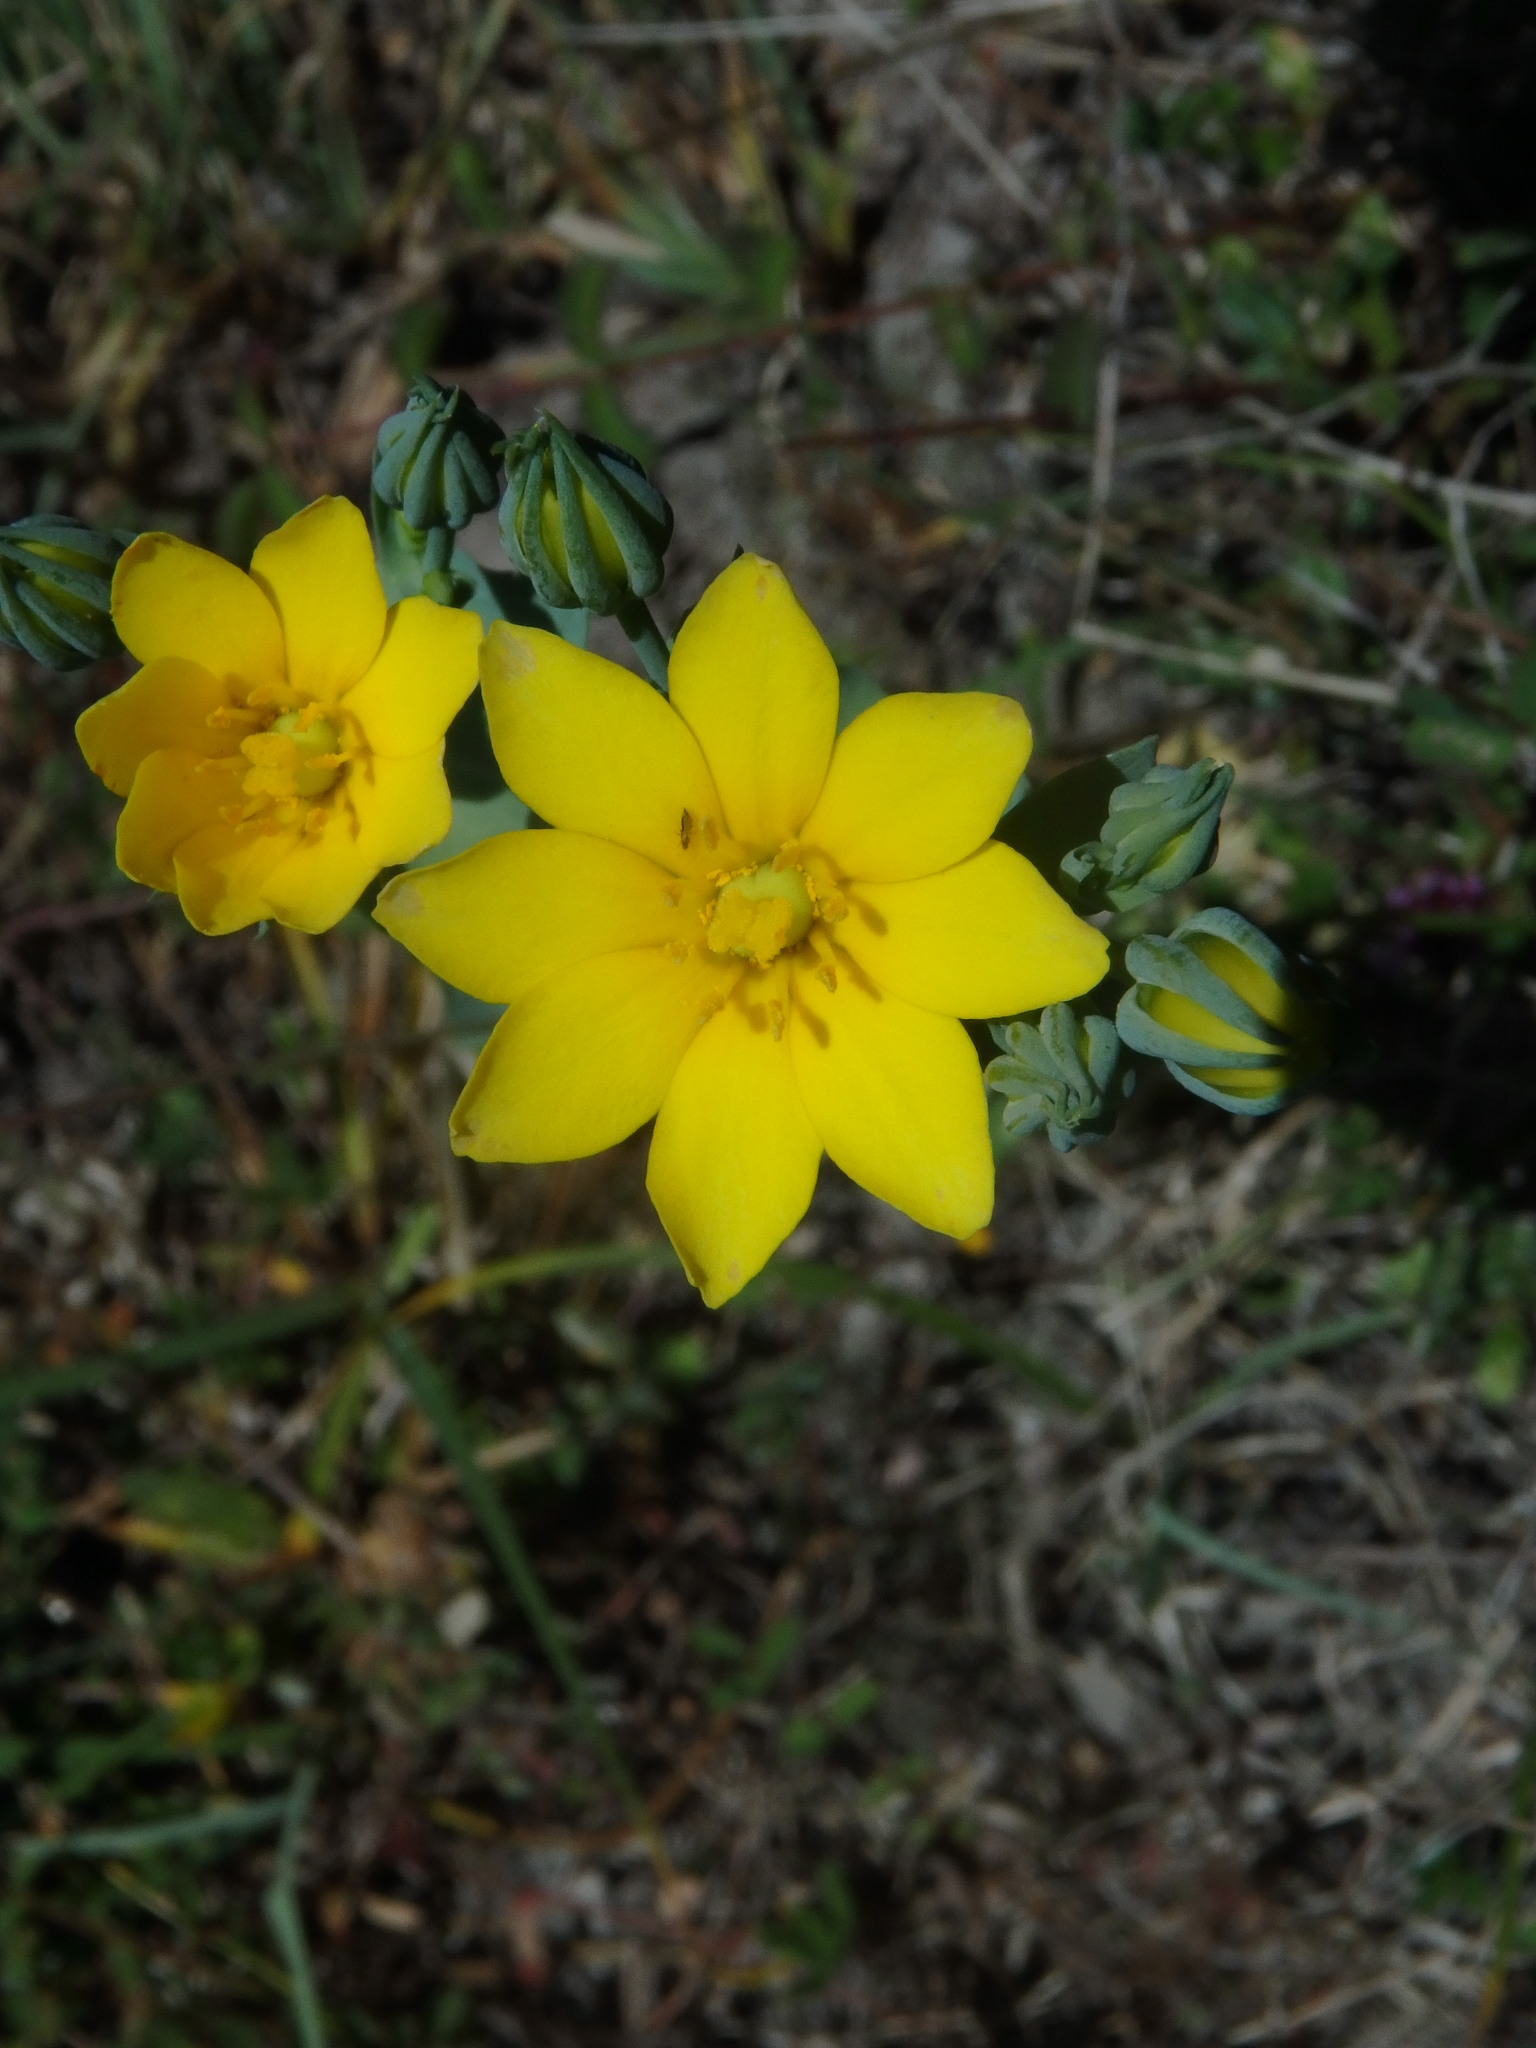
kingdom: Plantae
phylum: Tracheophyta
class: Magnoliopsida
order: Gentianales
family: Gentianaceae
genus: Blackstonia
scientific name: Blackstonia perfoliata
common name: Yellow-wort
